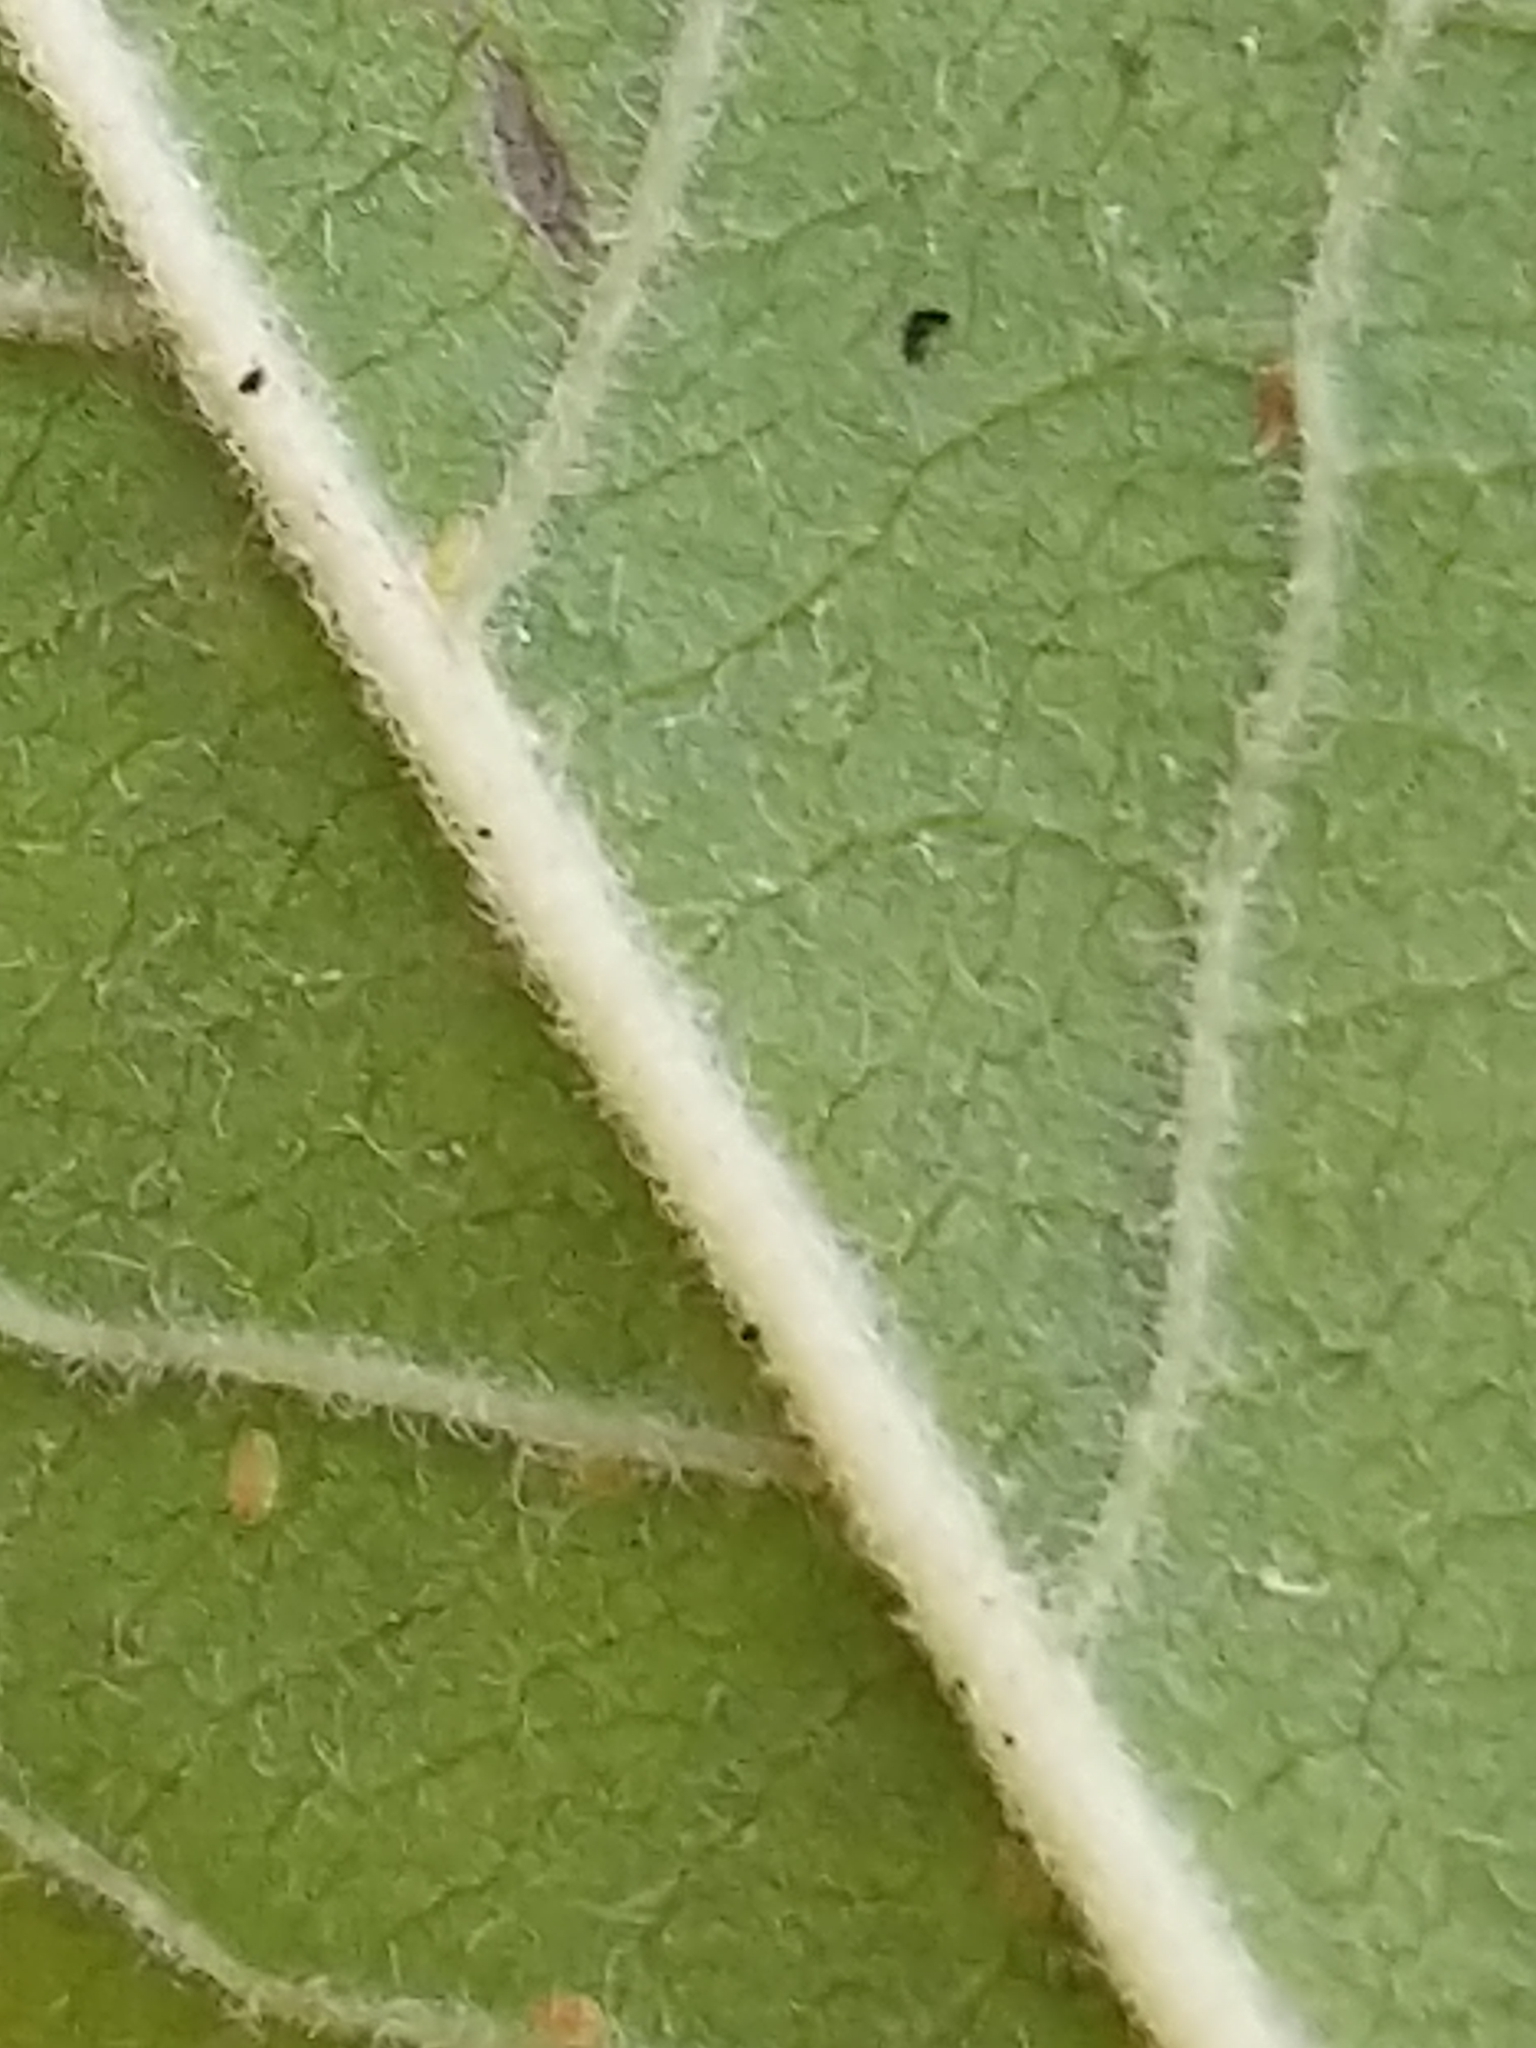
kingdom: Plantae
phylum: Tracheophyta
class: Magnoliopsida
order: Aquifoliales
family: Aquifoliaceae
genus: Ilex
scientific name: Ilex verticillata
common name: Virginia winterberry
